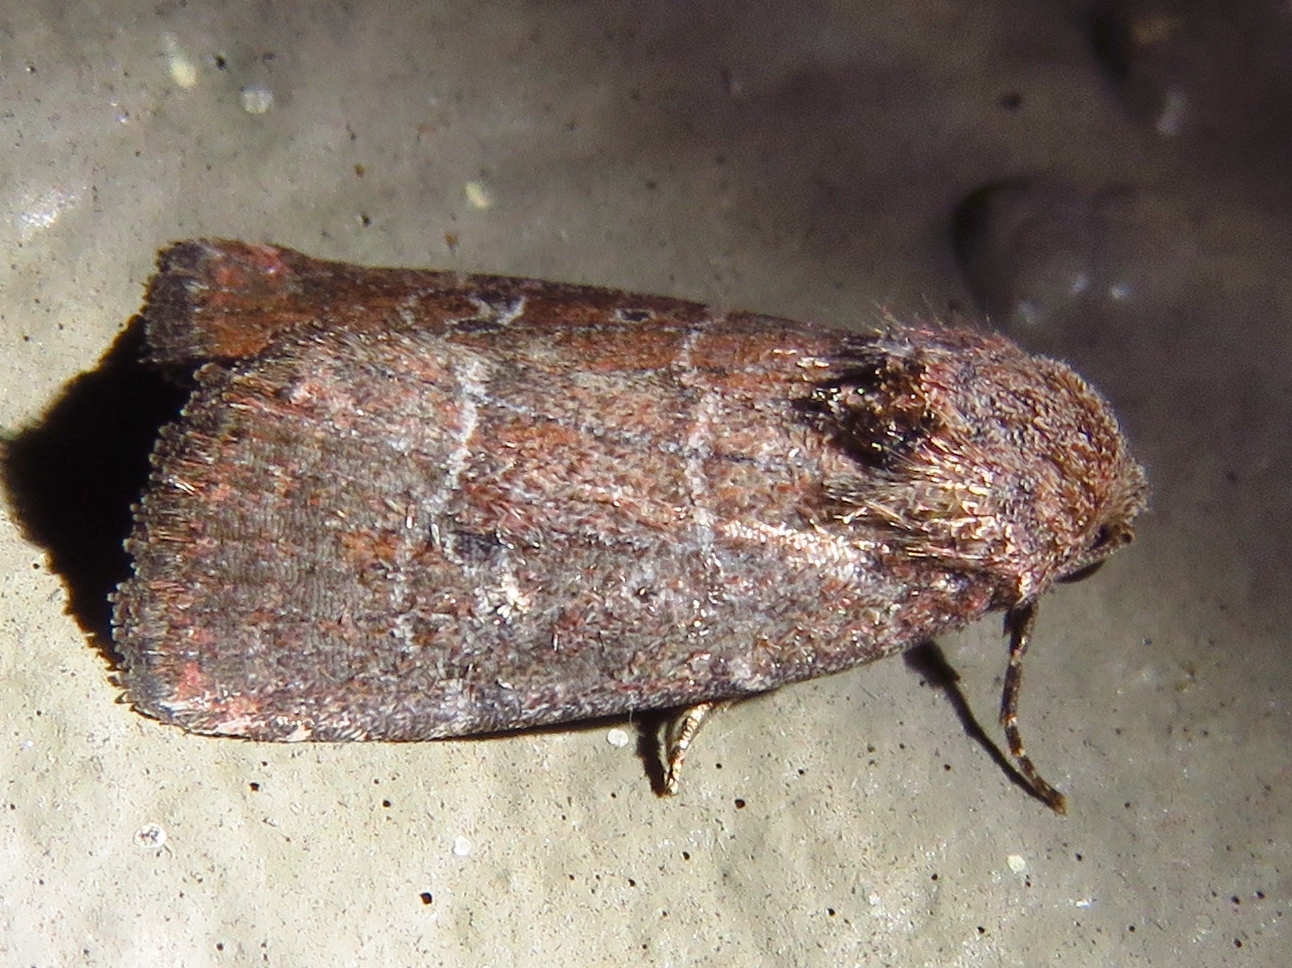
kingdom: Animalia
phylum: Arthropoda
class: Insecta
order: Lepidoptera
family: Noctuidae
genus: Elaphria
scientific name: Elaphria grata
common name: Grateful midget moth
